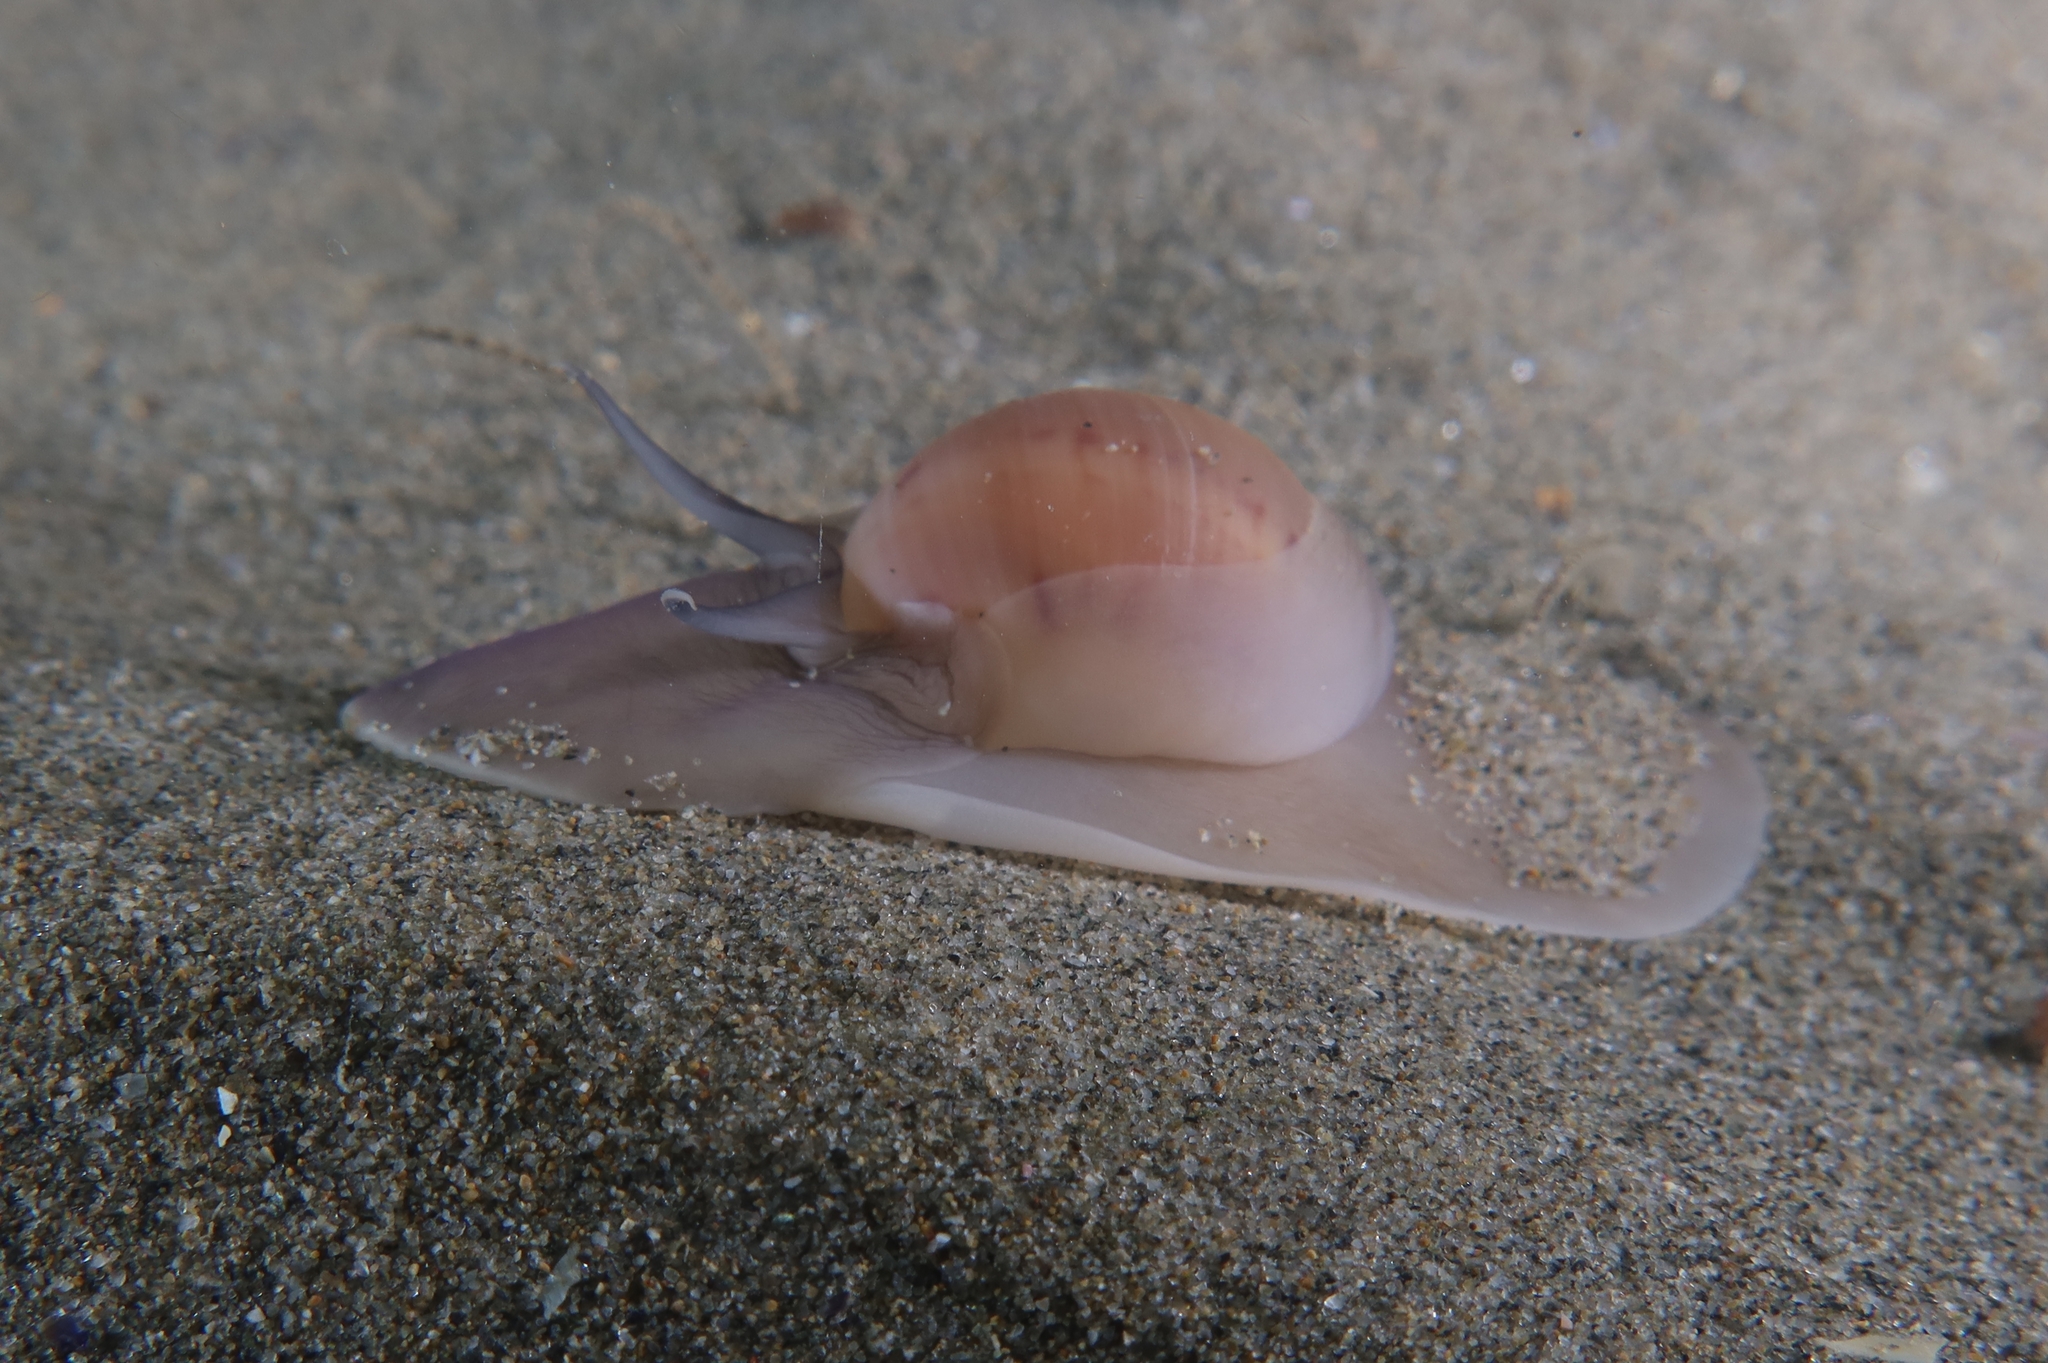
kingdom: Animalia
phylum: Mollusca
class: Gastropoda
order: Littorinimorpha
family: Naticidae
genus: Euspira
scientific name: Euspira catena
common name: Necklace shell
